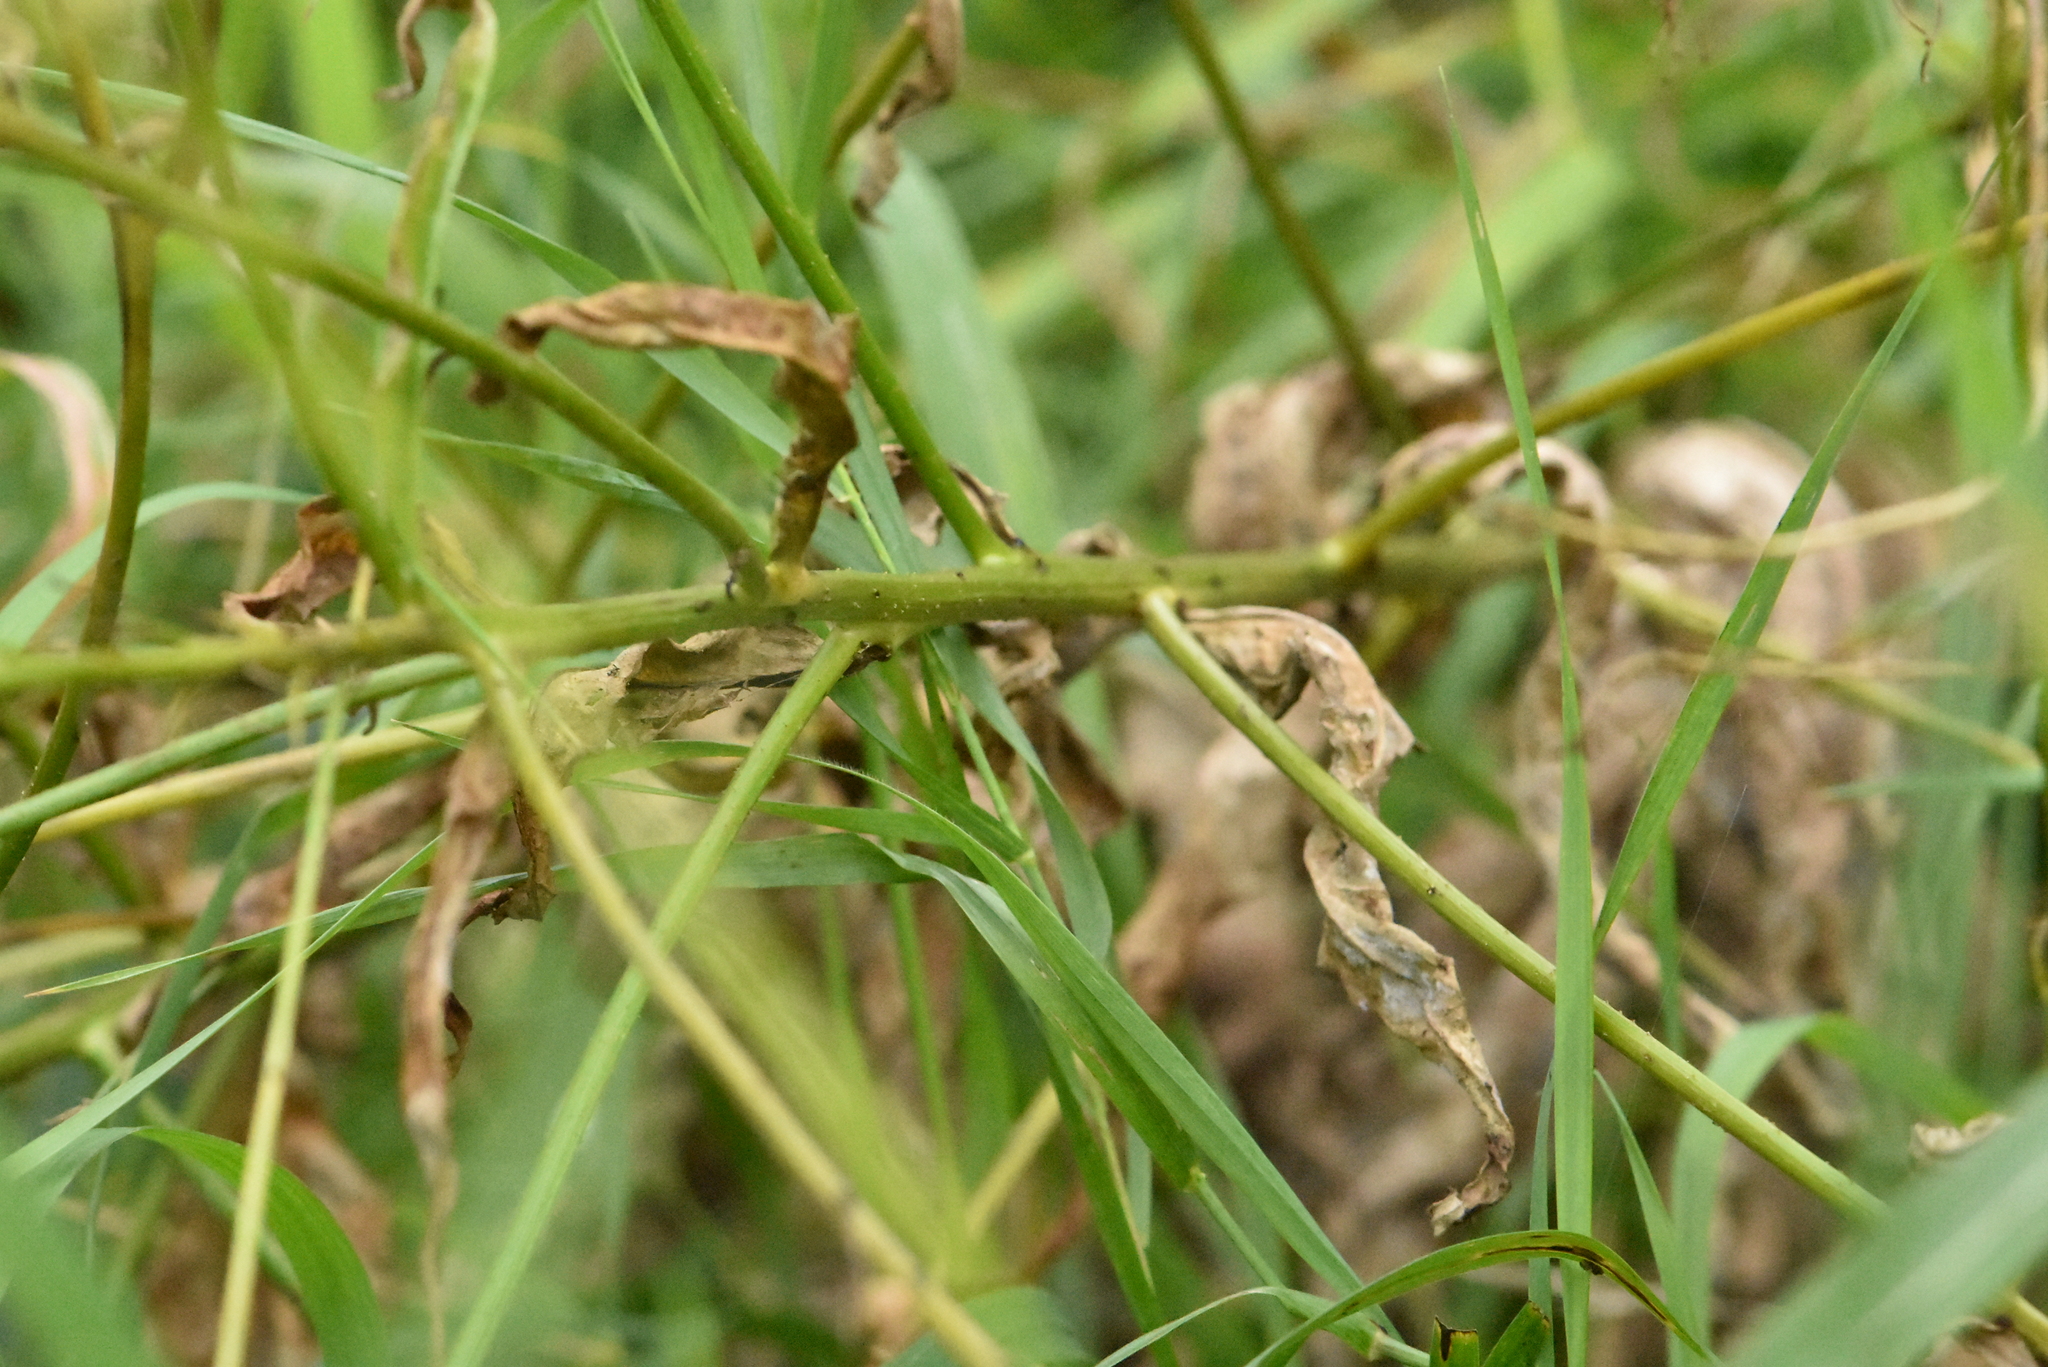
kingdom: Plantae
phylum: Tracheophyta
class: Magnoliopsida
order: Brassicales
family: Brassicaceae
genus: Bunias
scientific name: Bunias orientalis
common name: Warty-cabbage
